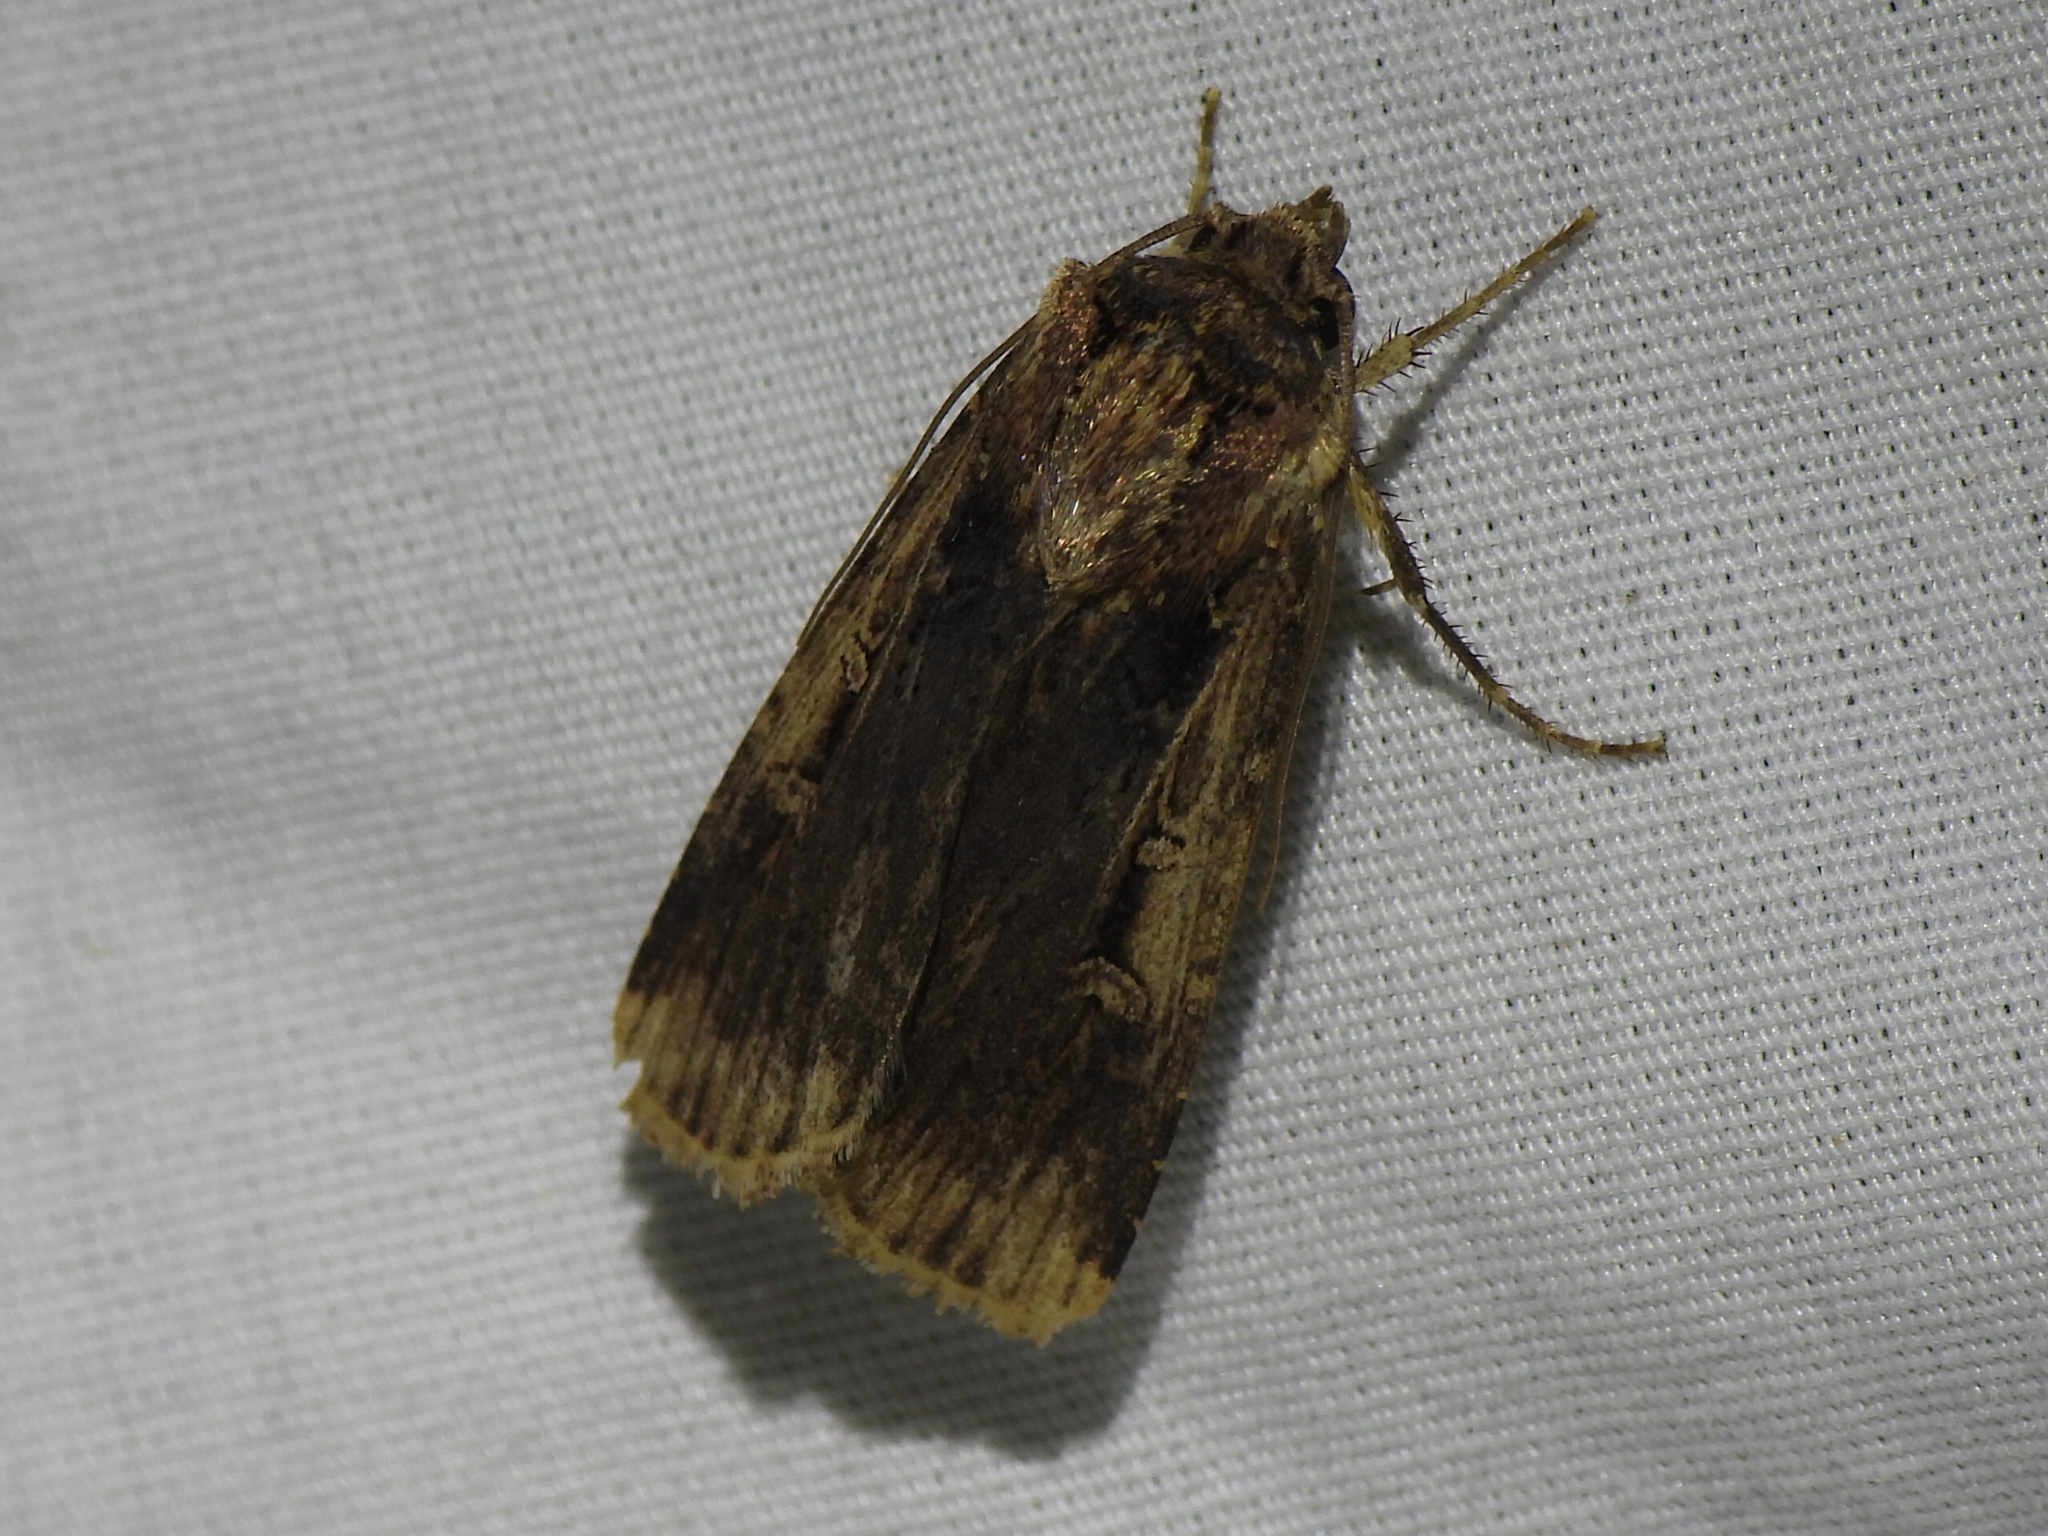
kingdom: Animalia
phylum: Arthropoda
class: Insecta
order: Lepidoptera
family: Noctuidae
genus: Feltia
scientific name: Feltia subterranea
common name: Granulate cutworm
